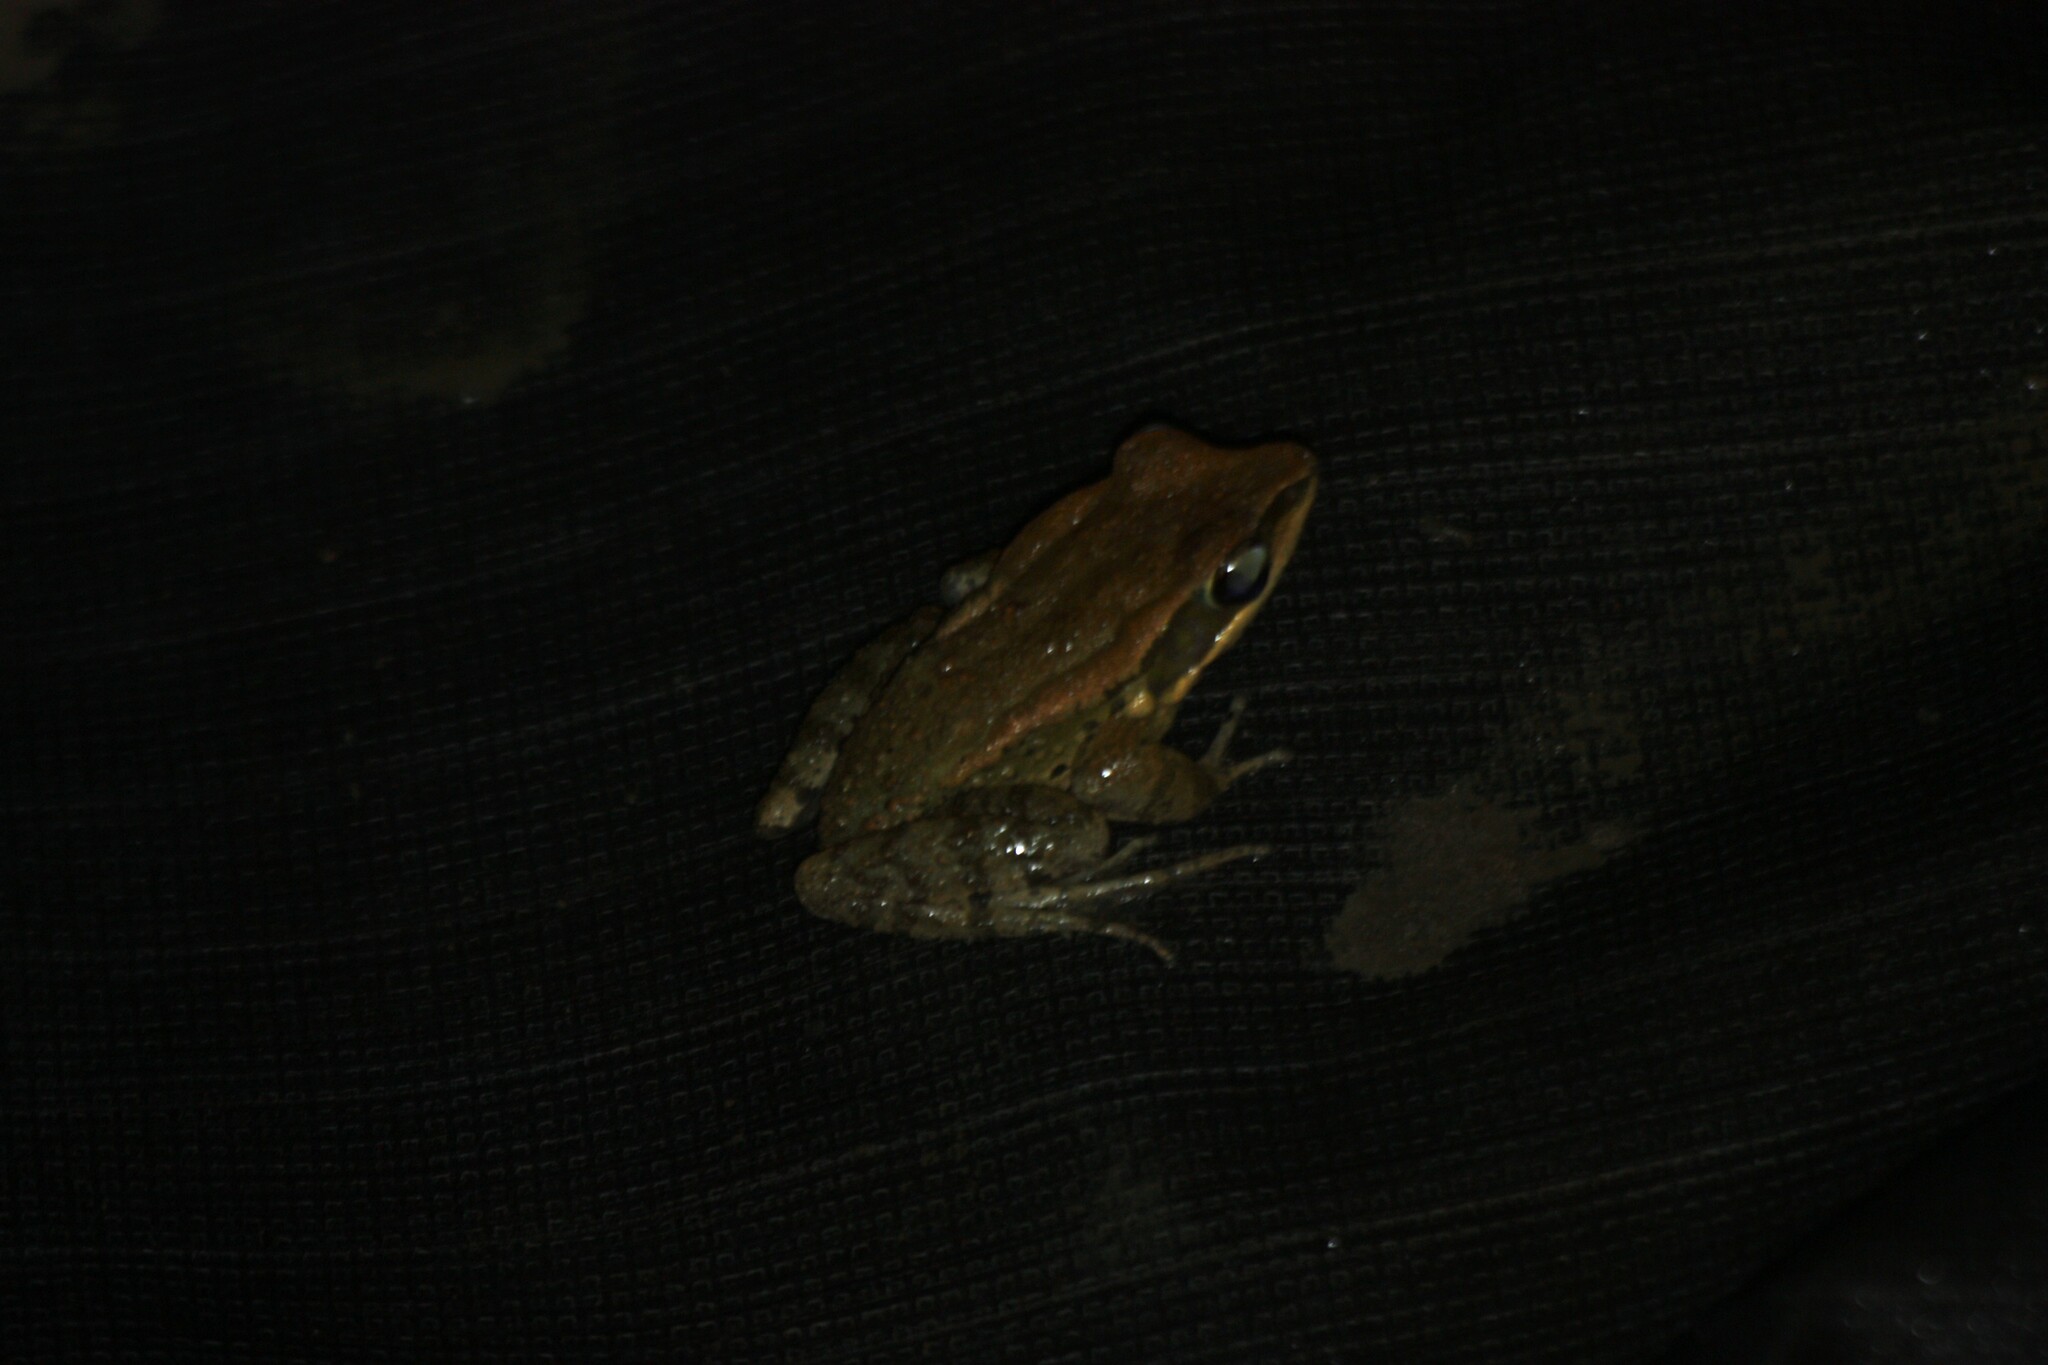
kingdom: Animalia
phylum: Chordata
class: Amphibia
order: Anura
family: Ranidae
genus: Hylarana
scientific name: Hylarana latouchii
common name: Broad-folded frog
